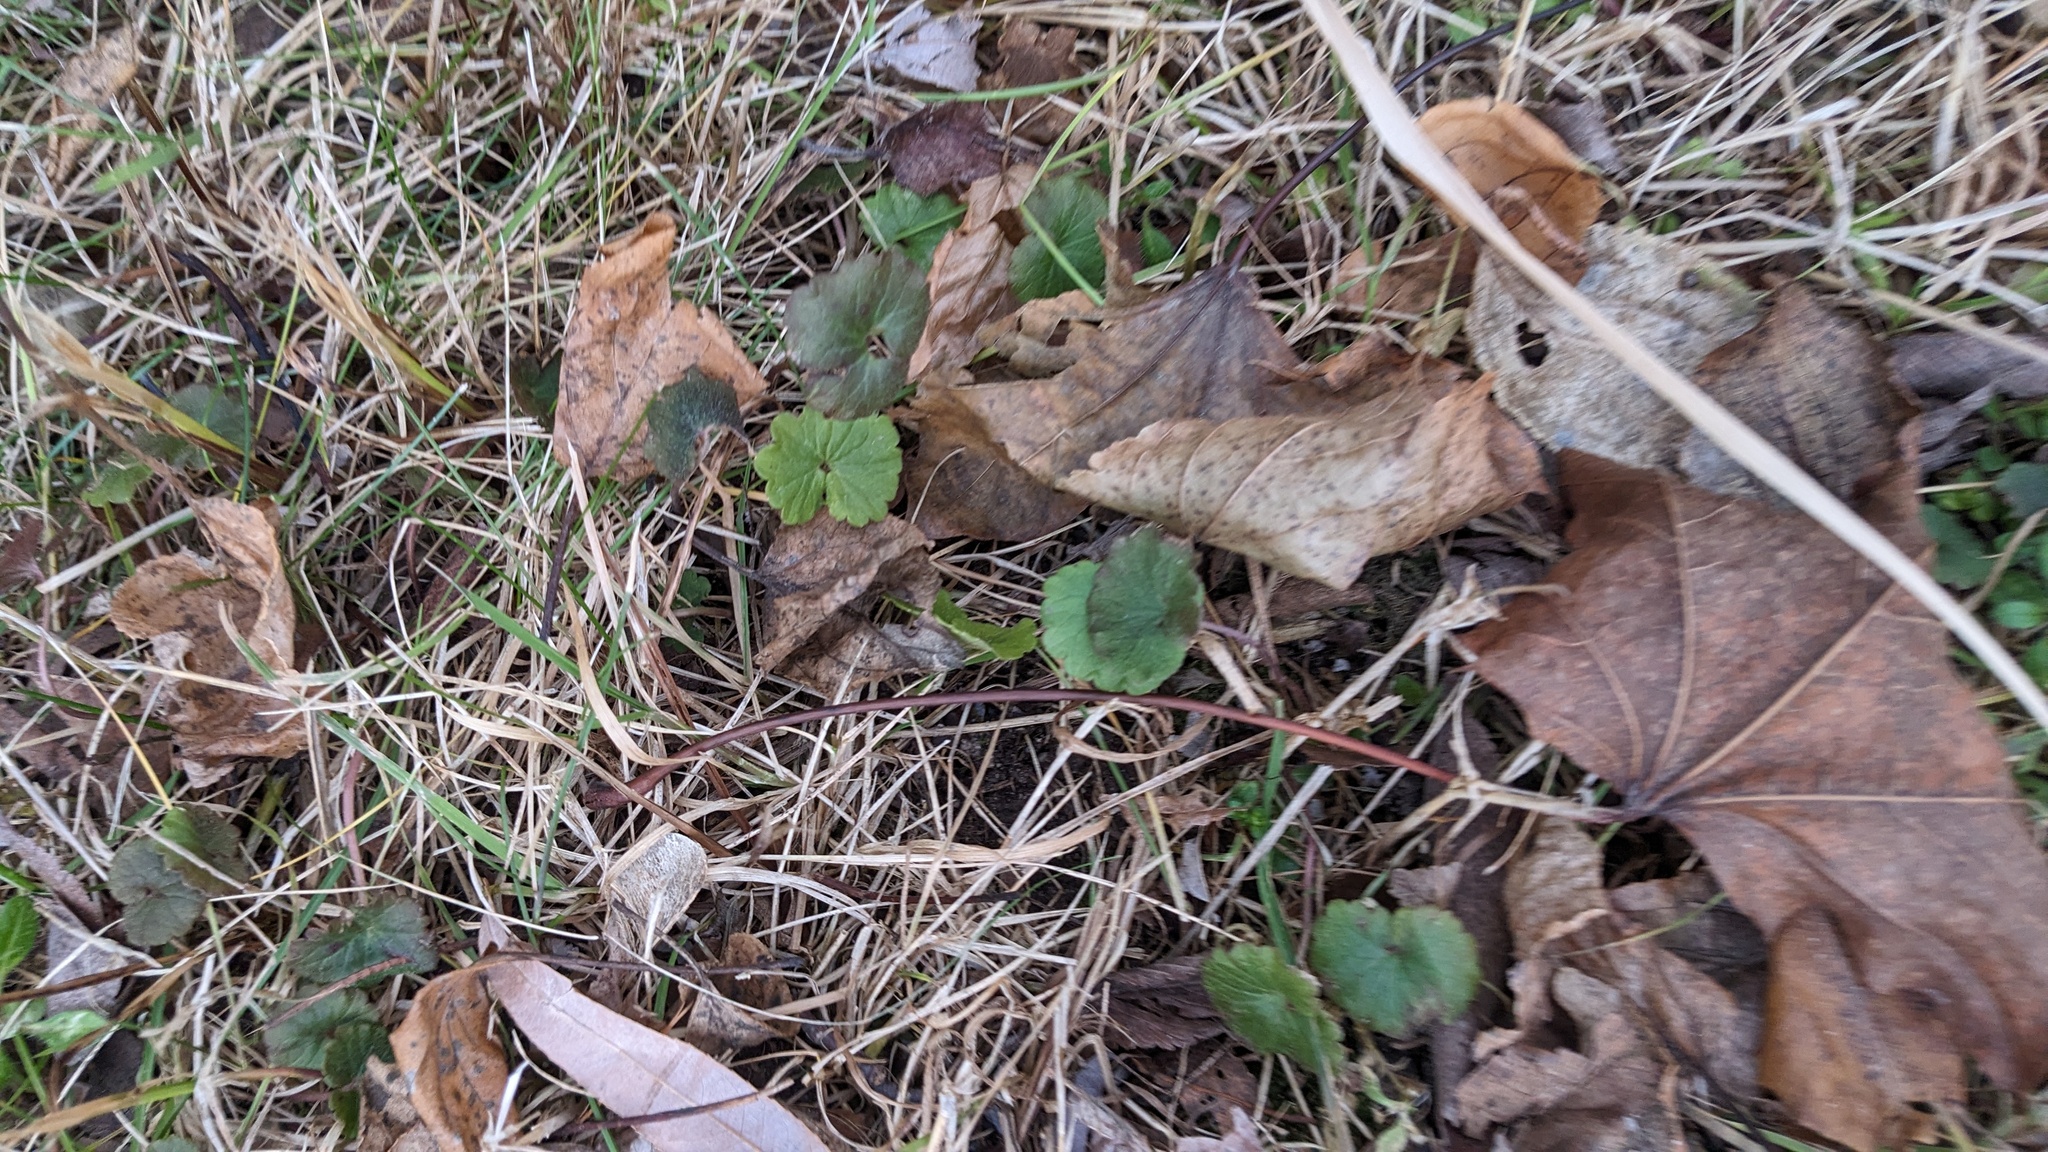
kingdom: Plantae
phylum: Tracheophyta
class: Magnoliopsida
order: Lamiales
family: Lamiaceae
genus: Glechoma
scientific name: Glechoma hederacea
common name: Ground ivy
